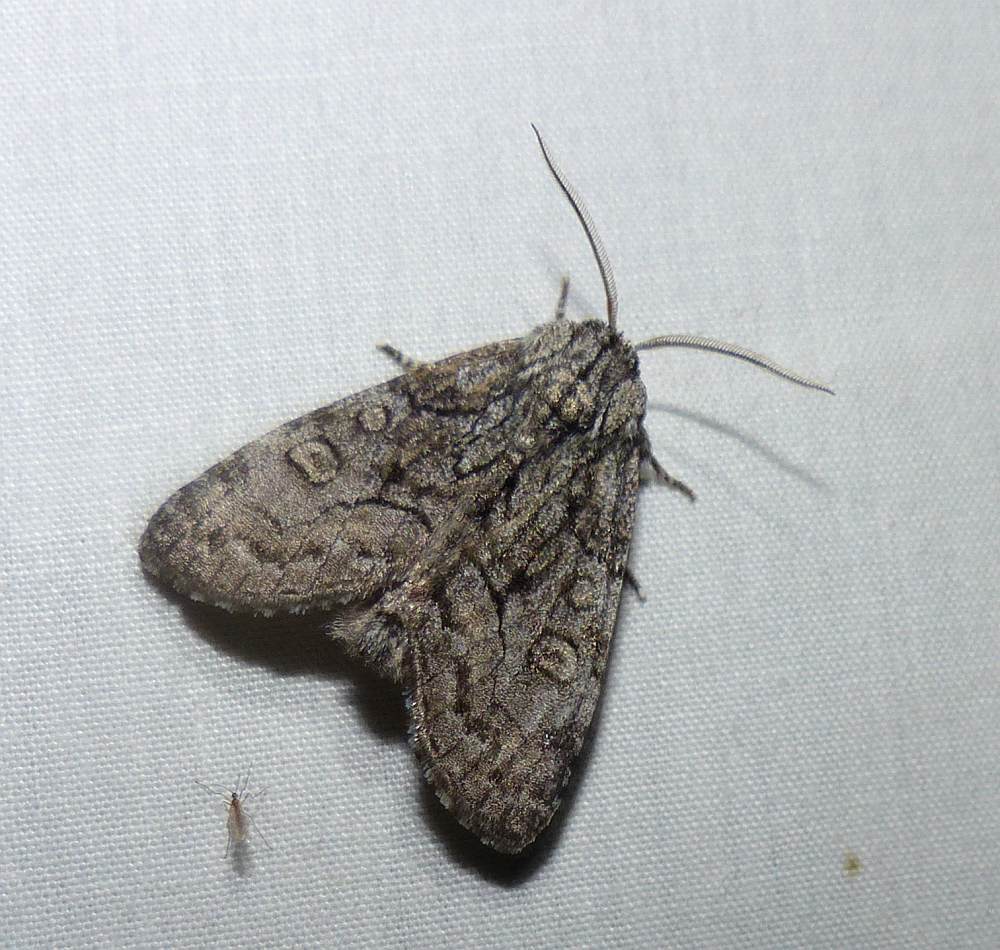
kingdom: Animalia
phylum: Arthropoda
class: Insecta
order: Lepidoptera
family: Noctuidae
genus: Raphia
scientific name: Raphia frater
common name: Brother
